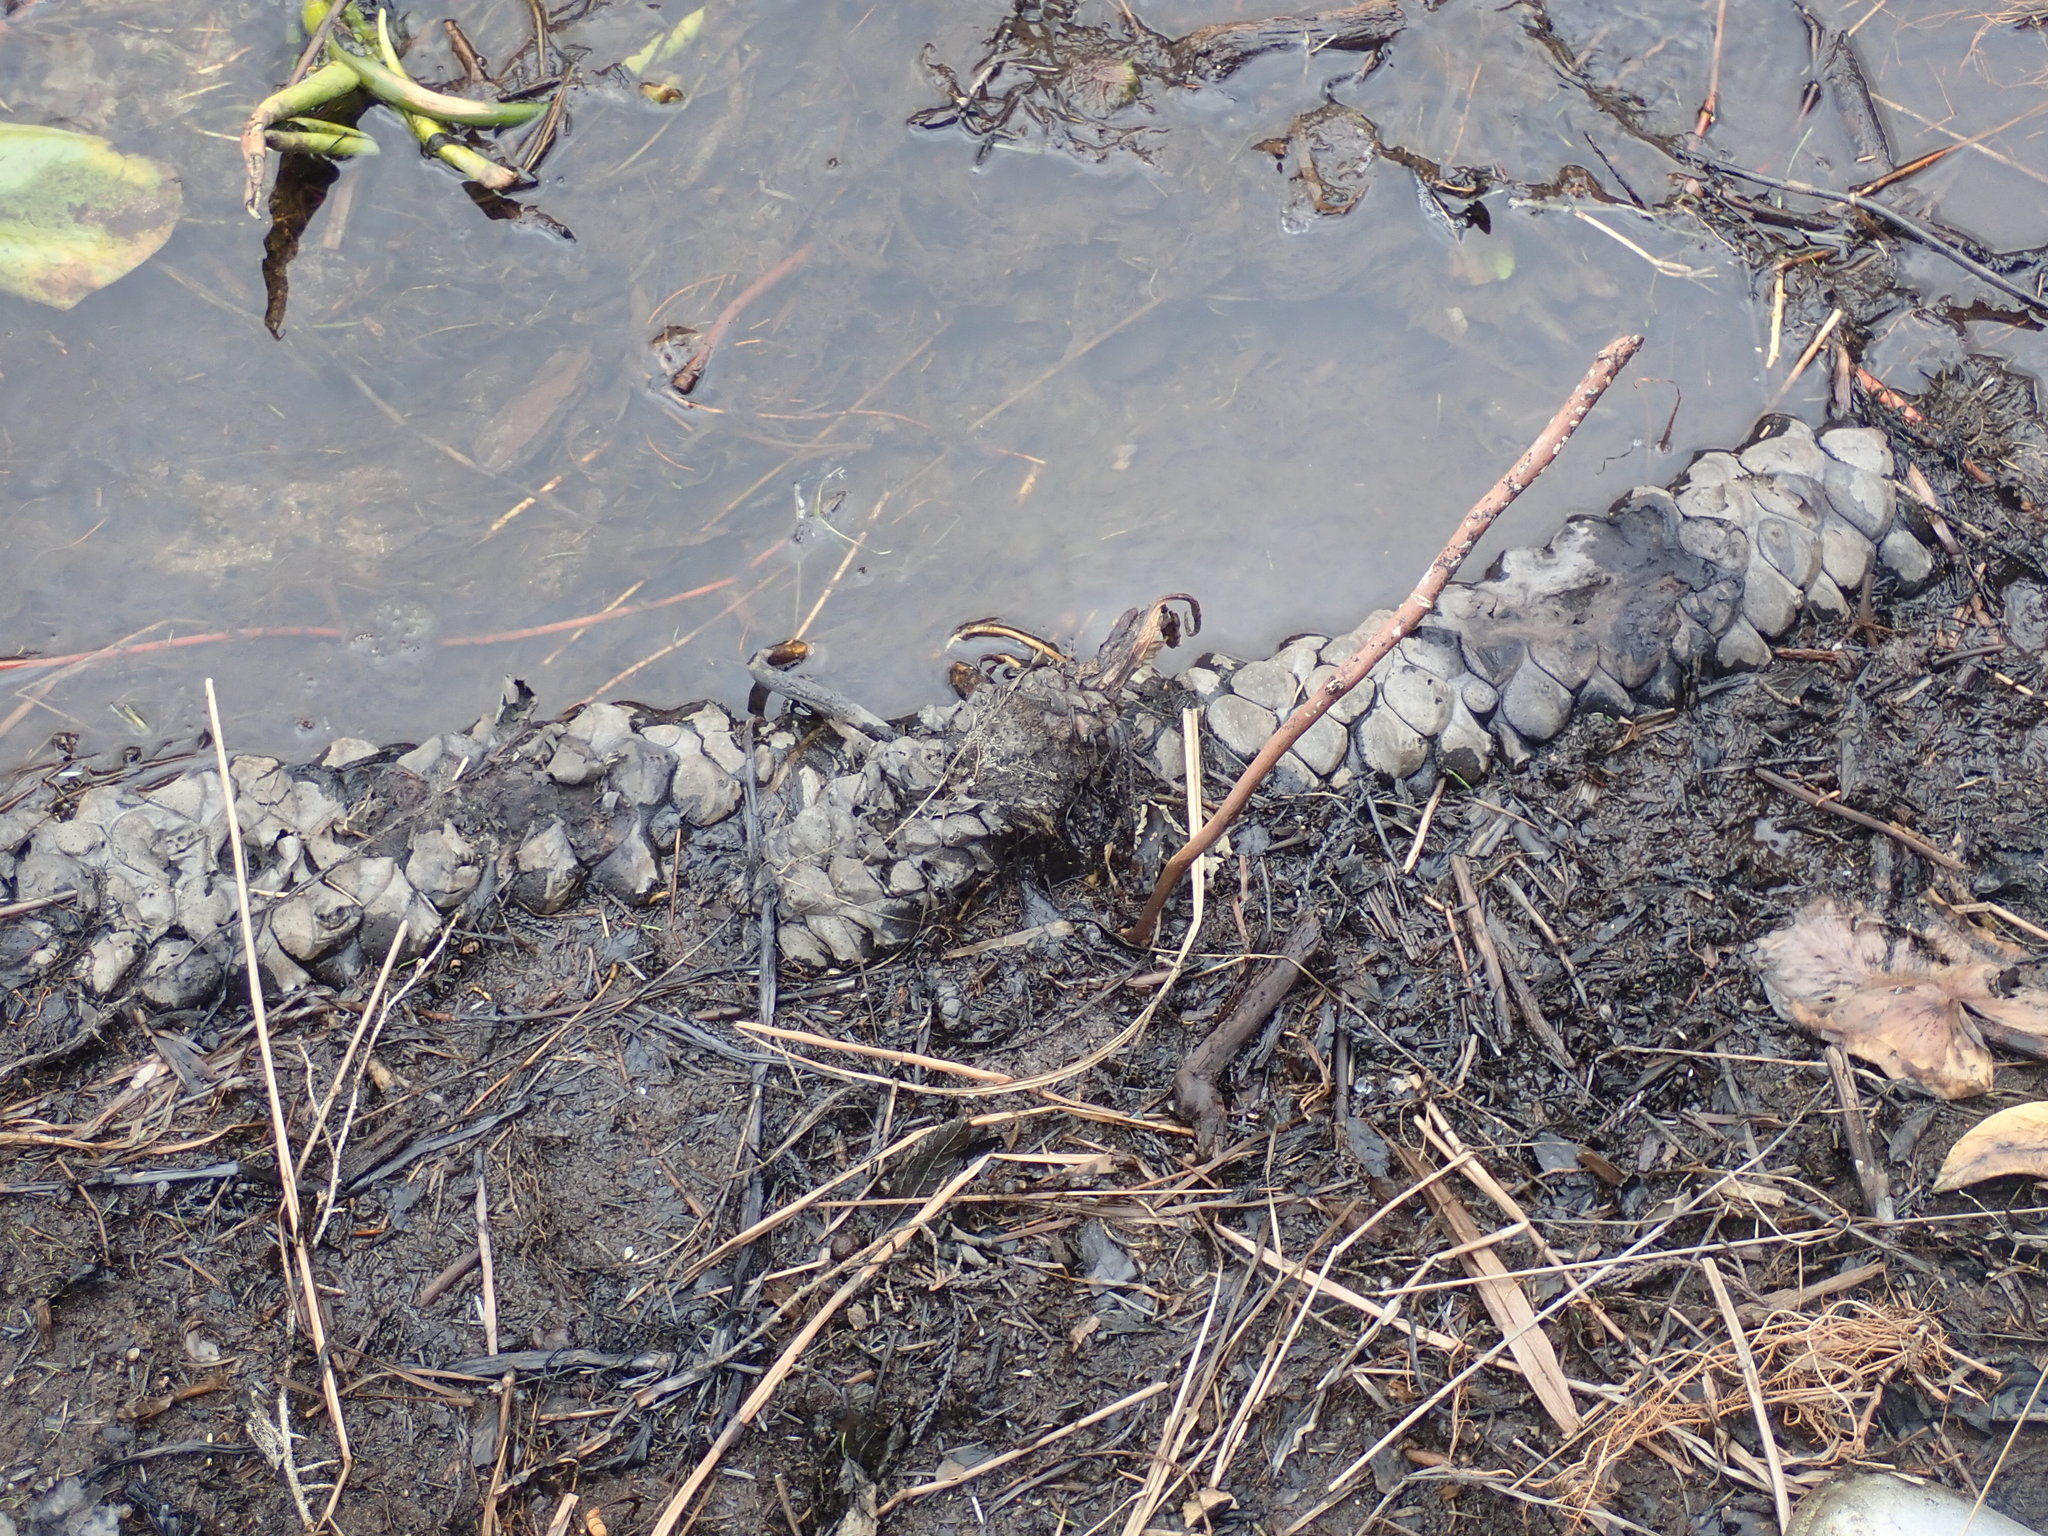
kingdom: Plantae
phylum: Tracheophyta
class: Magnoliopsida
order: Nymphaeales
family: Nymphaeaceae
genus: Nuphar
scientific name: Nuphar polysepala
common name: Rocky mountain cow-lily
